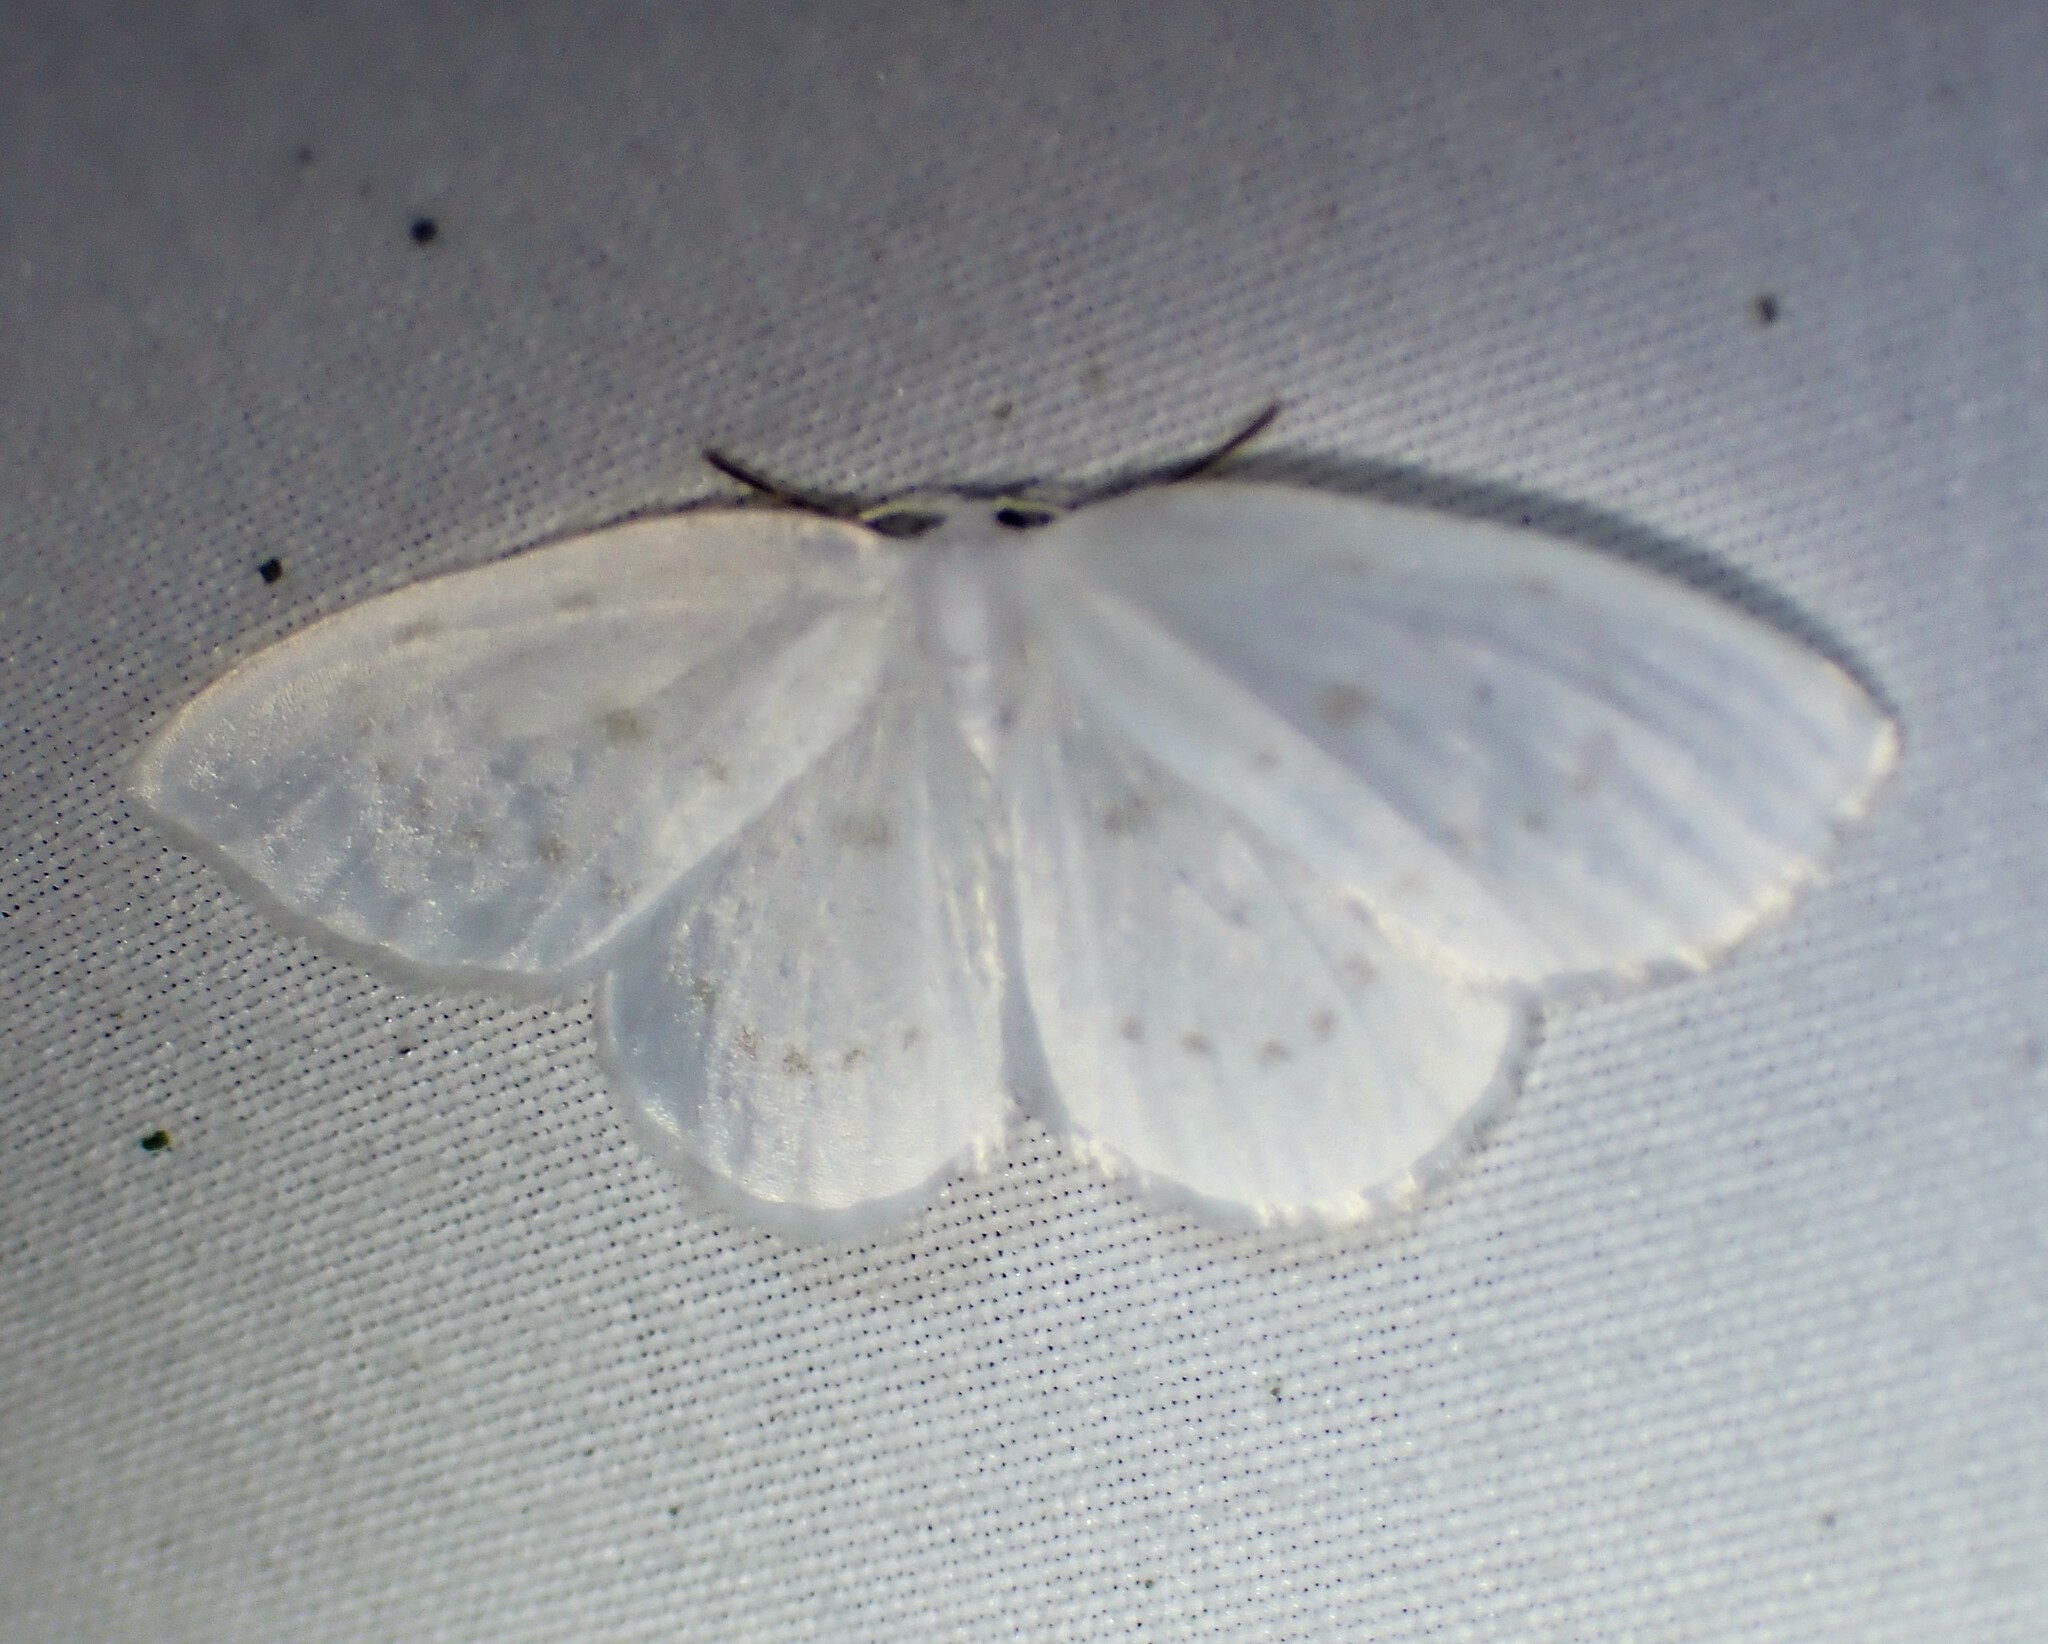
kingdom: Animalia
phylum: Arthropoda
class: Insecta
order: Lepidoptera
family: Drepanidae
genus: Eudeilinia
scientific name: Eudeilinia herminiata
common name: Northern eudeilinea moth
